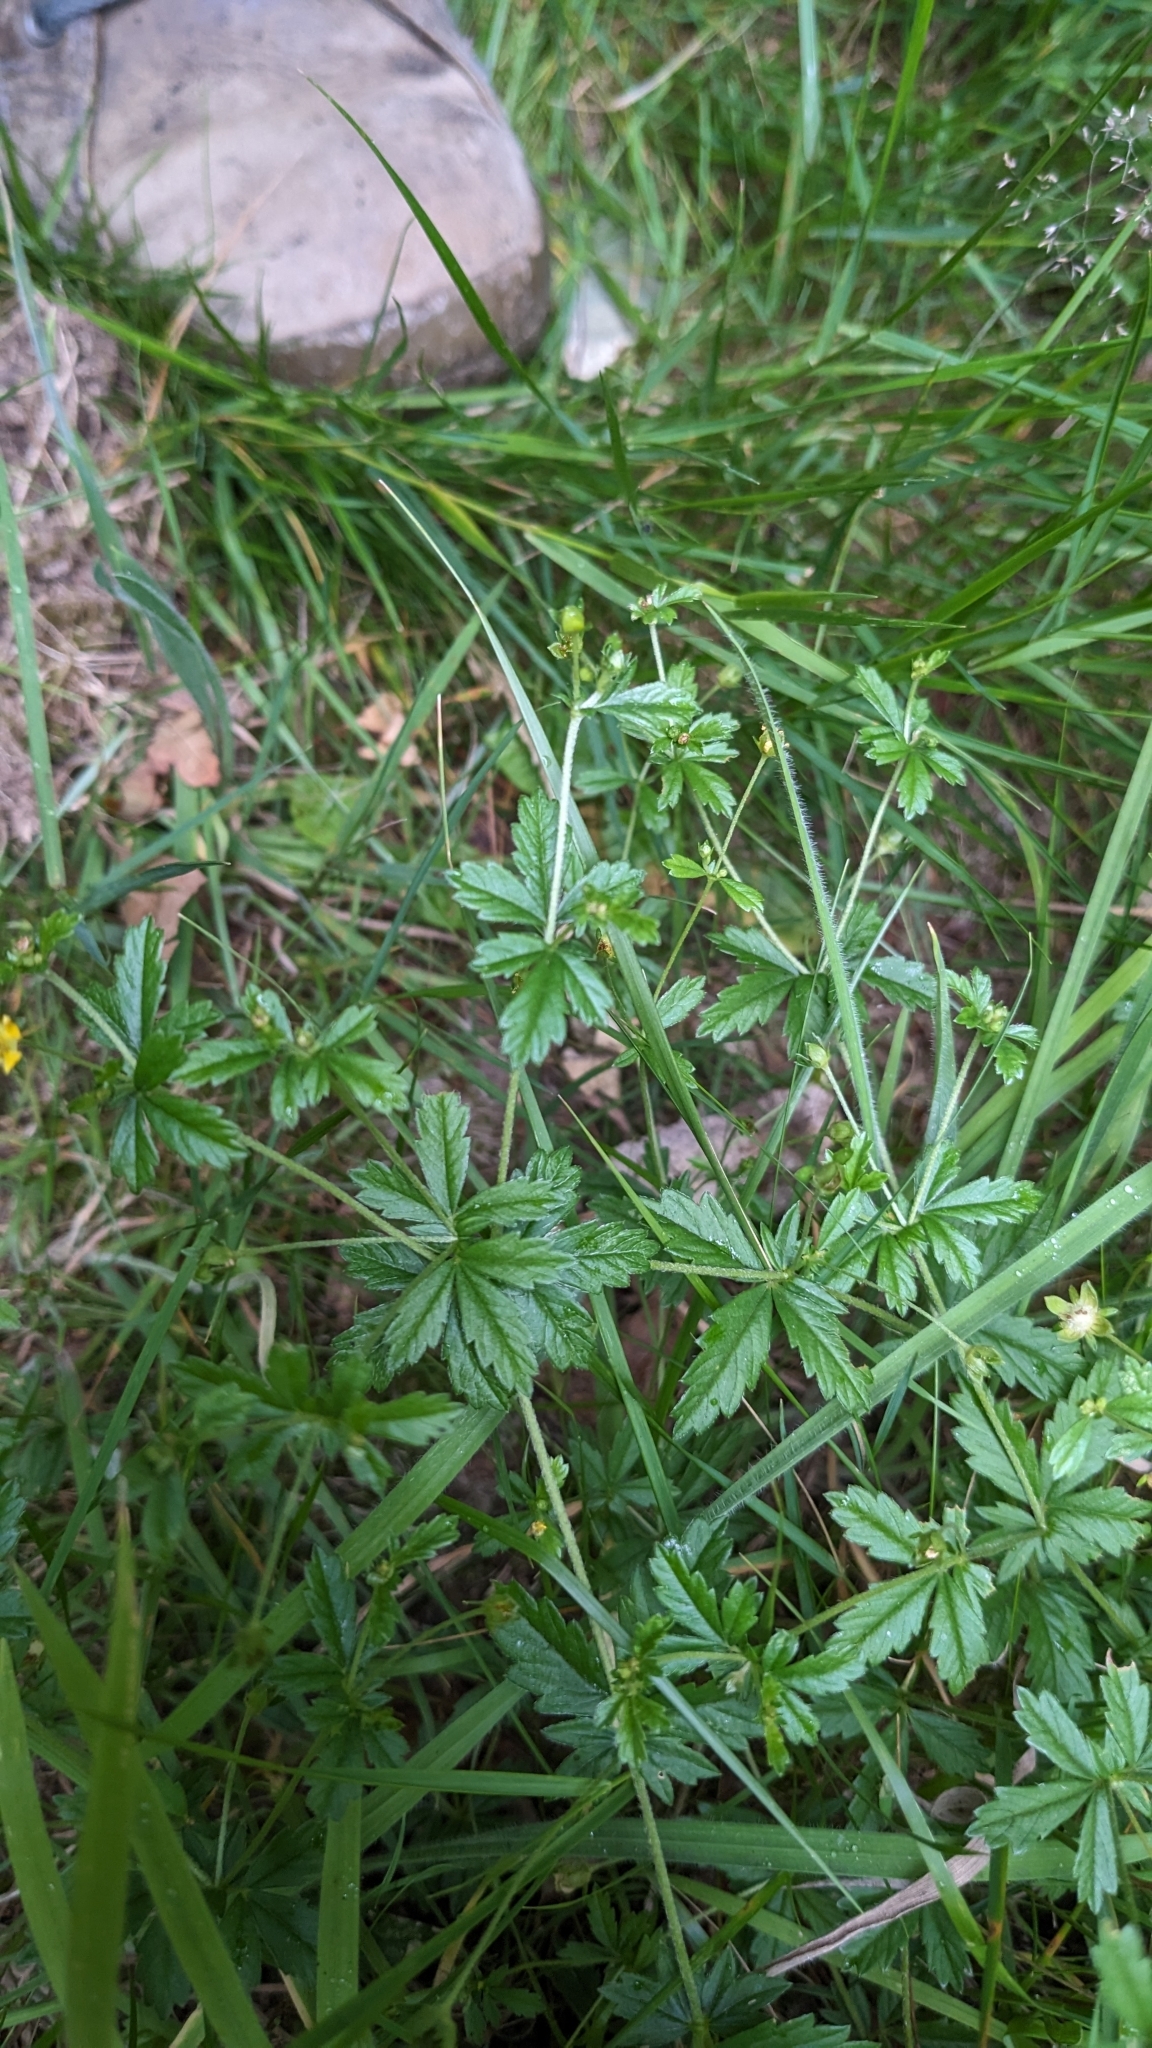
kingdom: Plantae
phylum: Tracheophyta
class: Magnoliopsida
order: Rosales
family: Rosaceae
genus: Potentilla
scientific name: Potentilla erecta
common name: Tormentil
